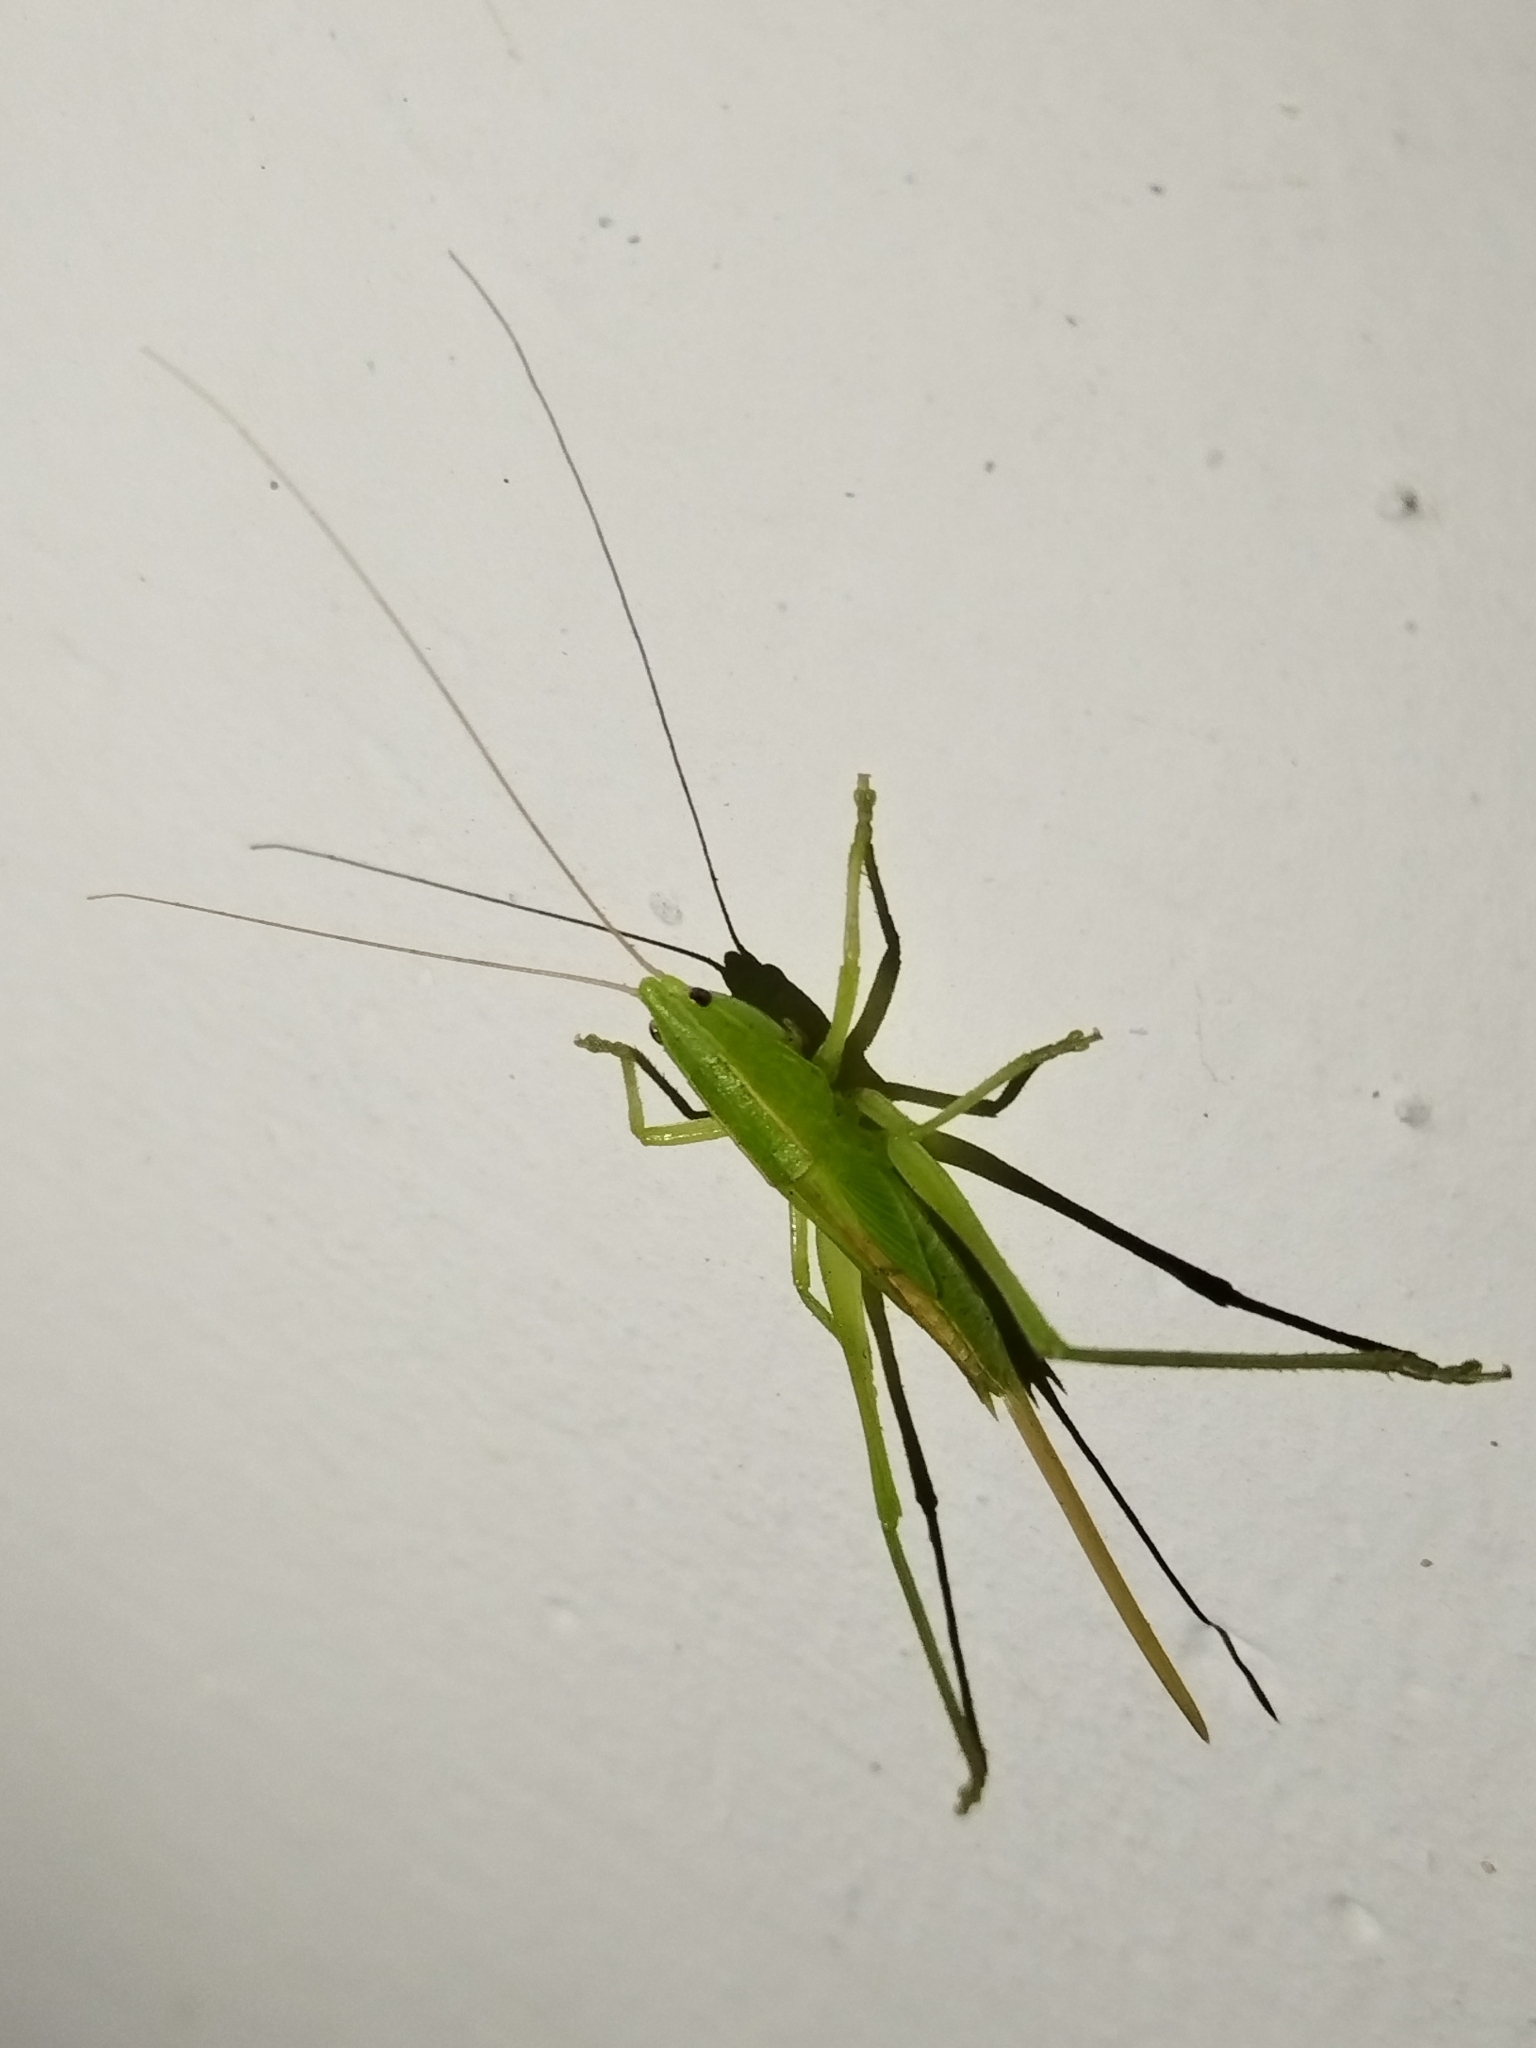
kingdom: Animalia
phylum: Arthropoda
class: Insecta
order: Orthoptera
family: Tettigoniidae
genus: Ruspolia
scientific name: Ruspolia nitidula
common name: Large conehead
